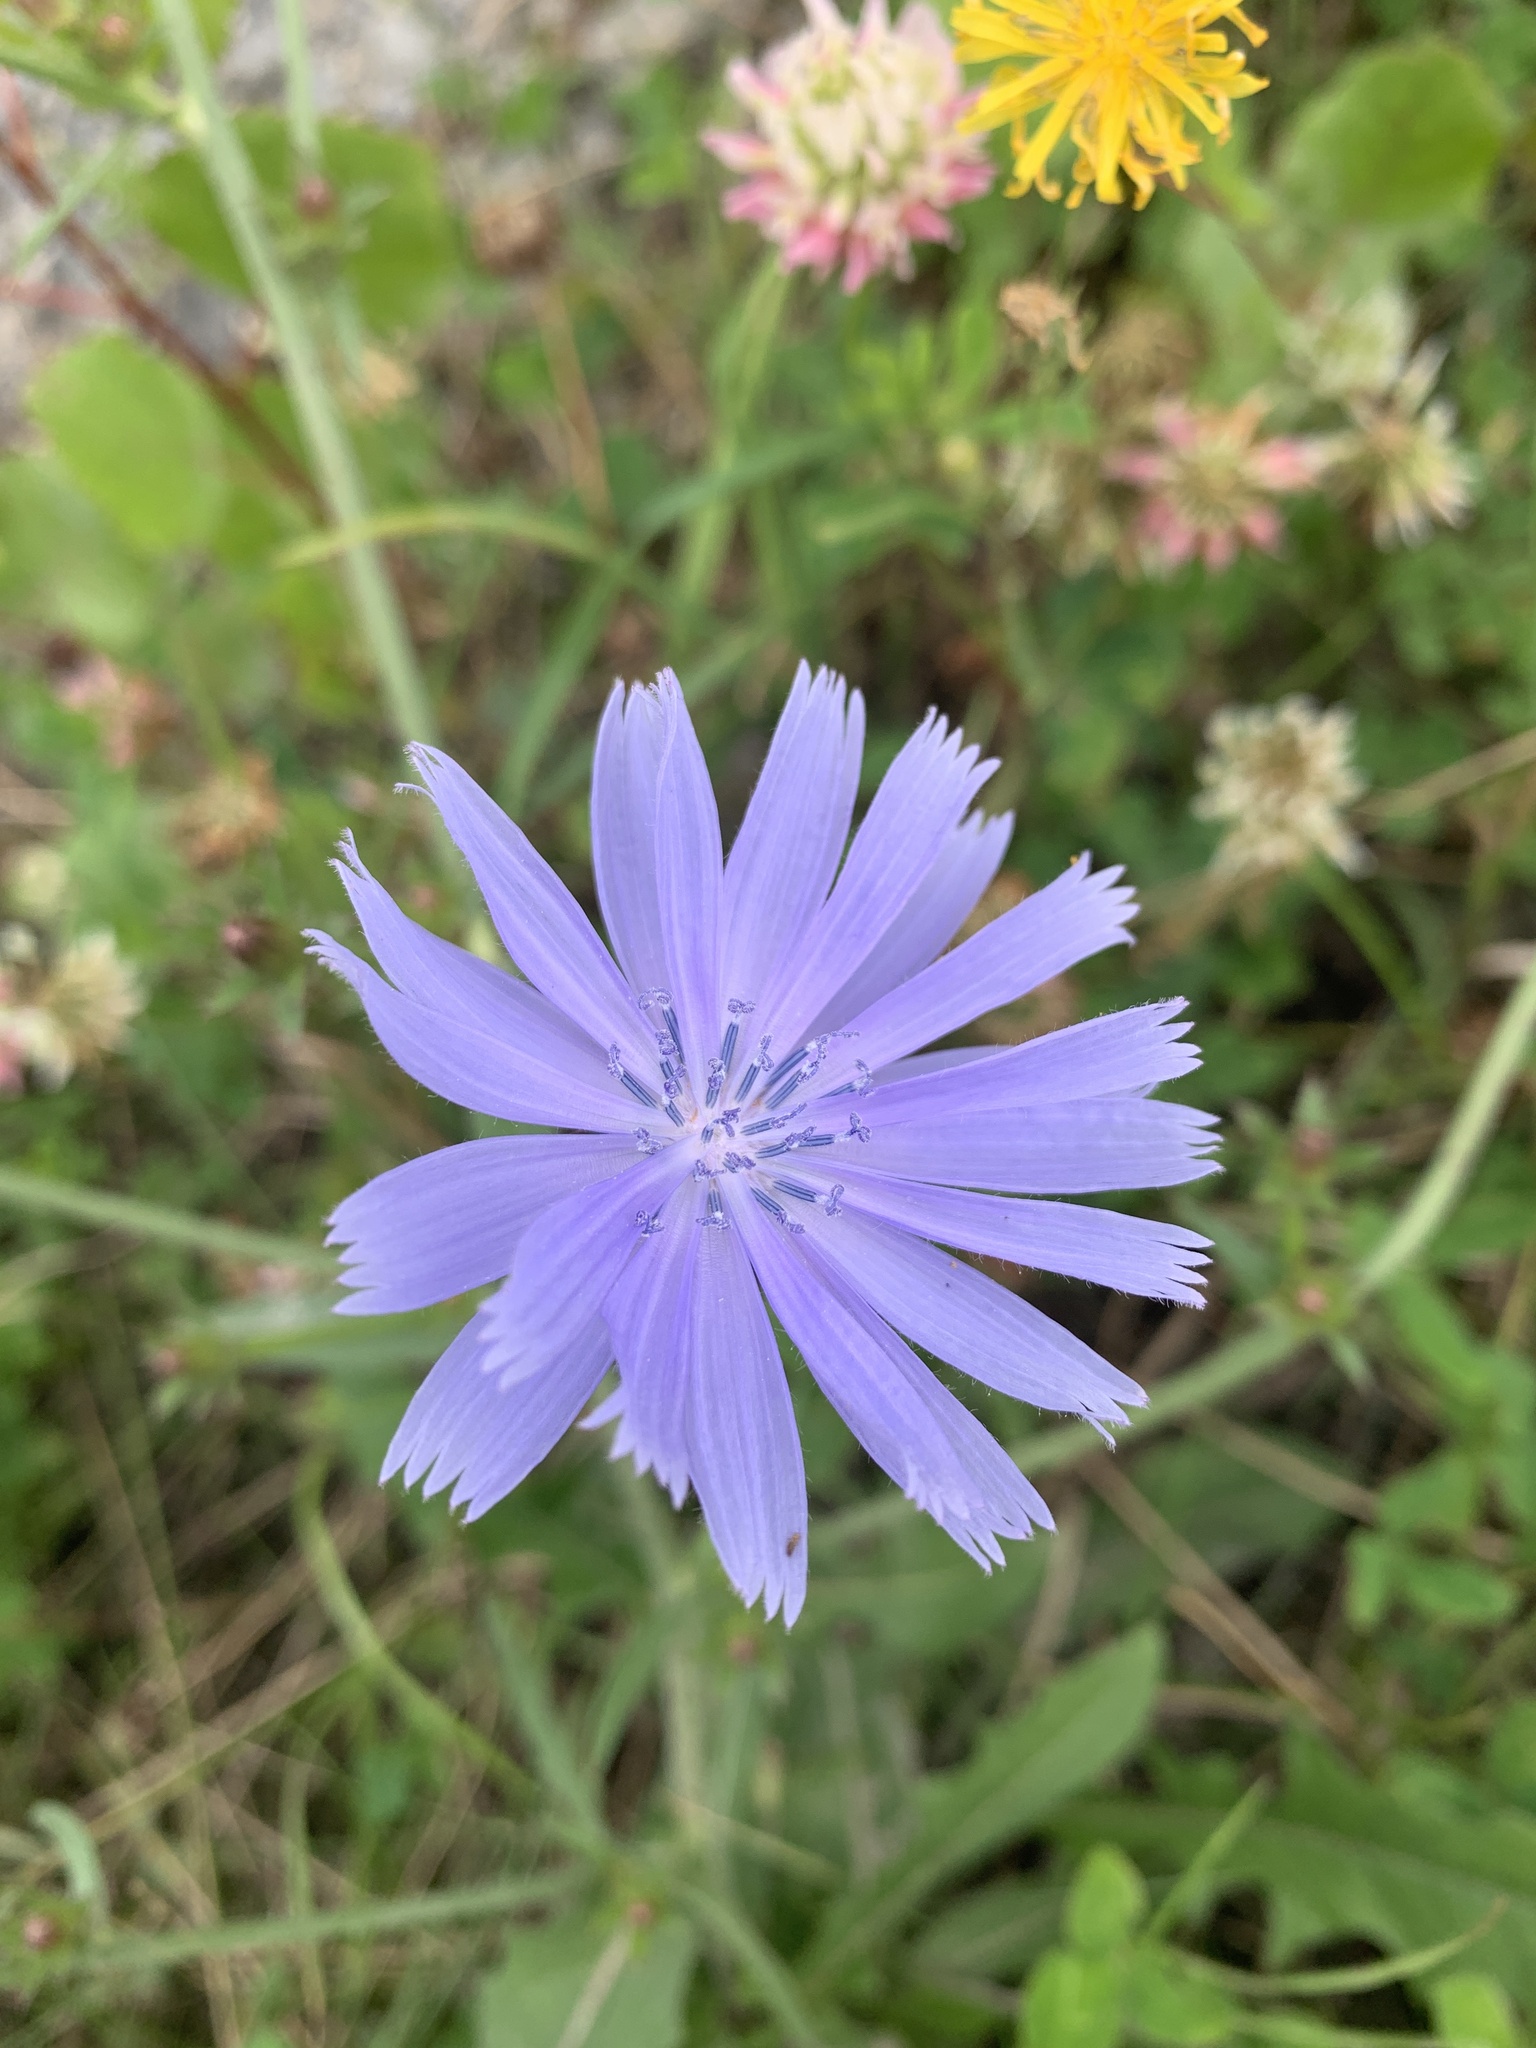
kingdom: Plantae
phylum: Tracheophyta
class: Magnoliopsida
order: Asterales
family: Asteraceae
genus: Cichorium
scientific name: Cichorium intybus
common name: Chicory
